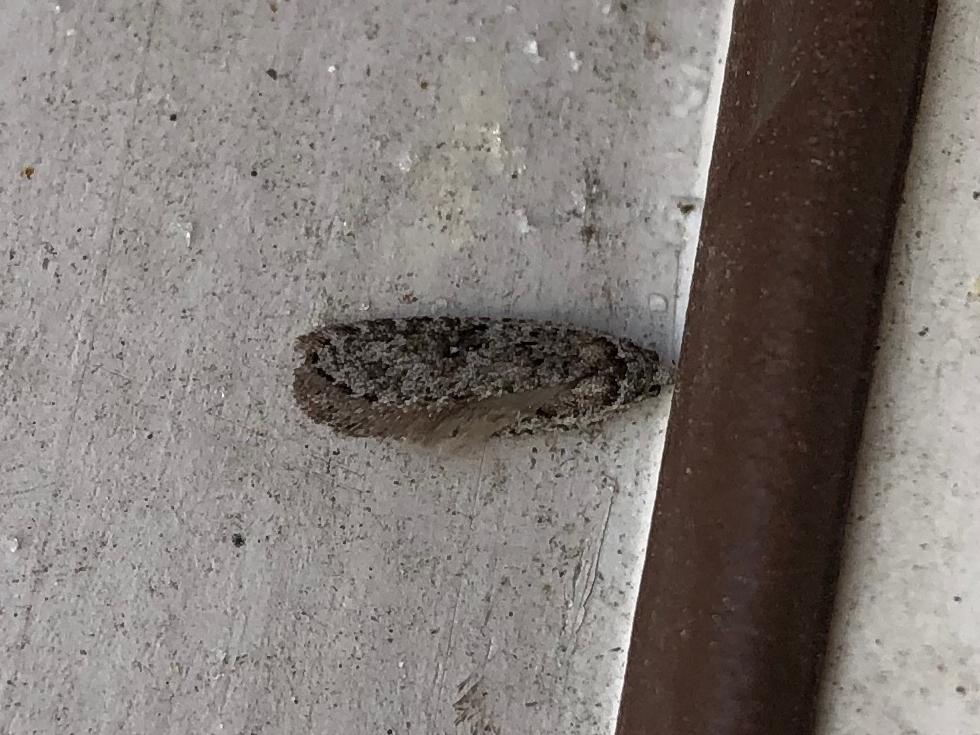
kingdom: Animalia
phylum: Arthropoda
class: Insecta
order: Lepidoptera
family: Depressariidae
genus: Exaeretia
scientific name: Exaeretia ciniflonella
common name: Scotch flat-body
